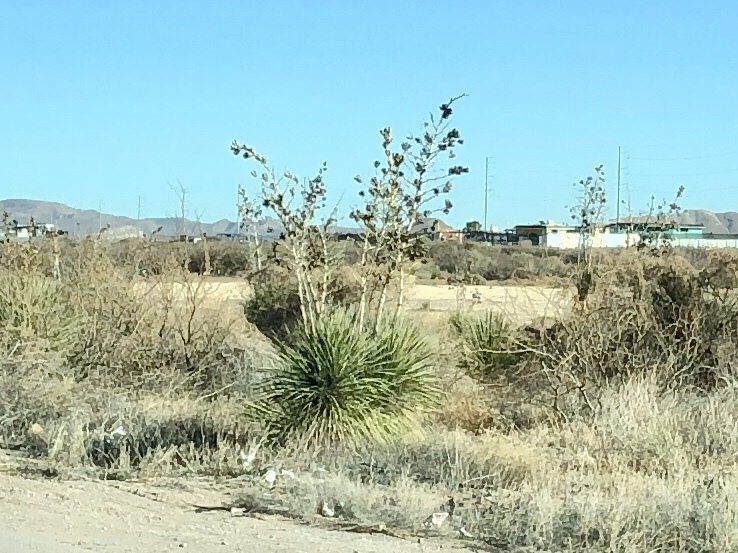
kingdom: Plantae
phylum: Tracheophyta
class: Liliopsida
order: Asparagales
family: Asparagaceae
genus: Yucca
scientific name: Yucca elata
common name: Palmella
